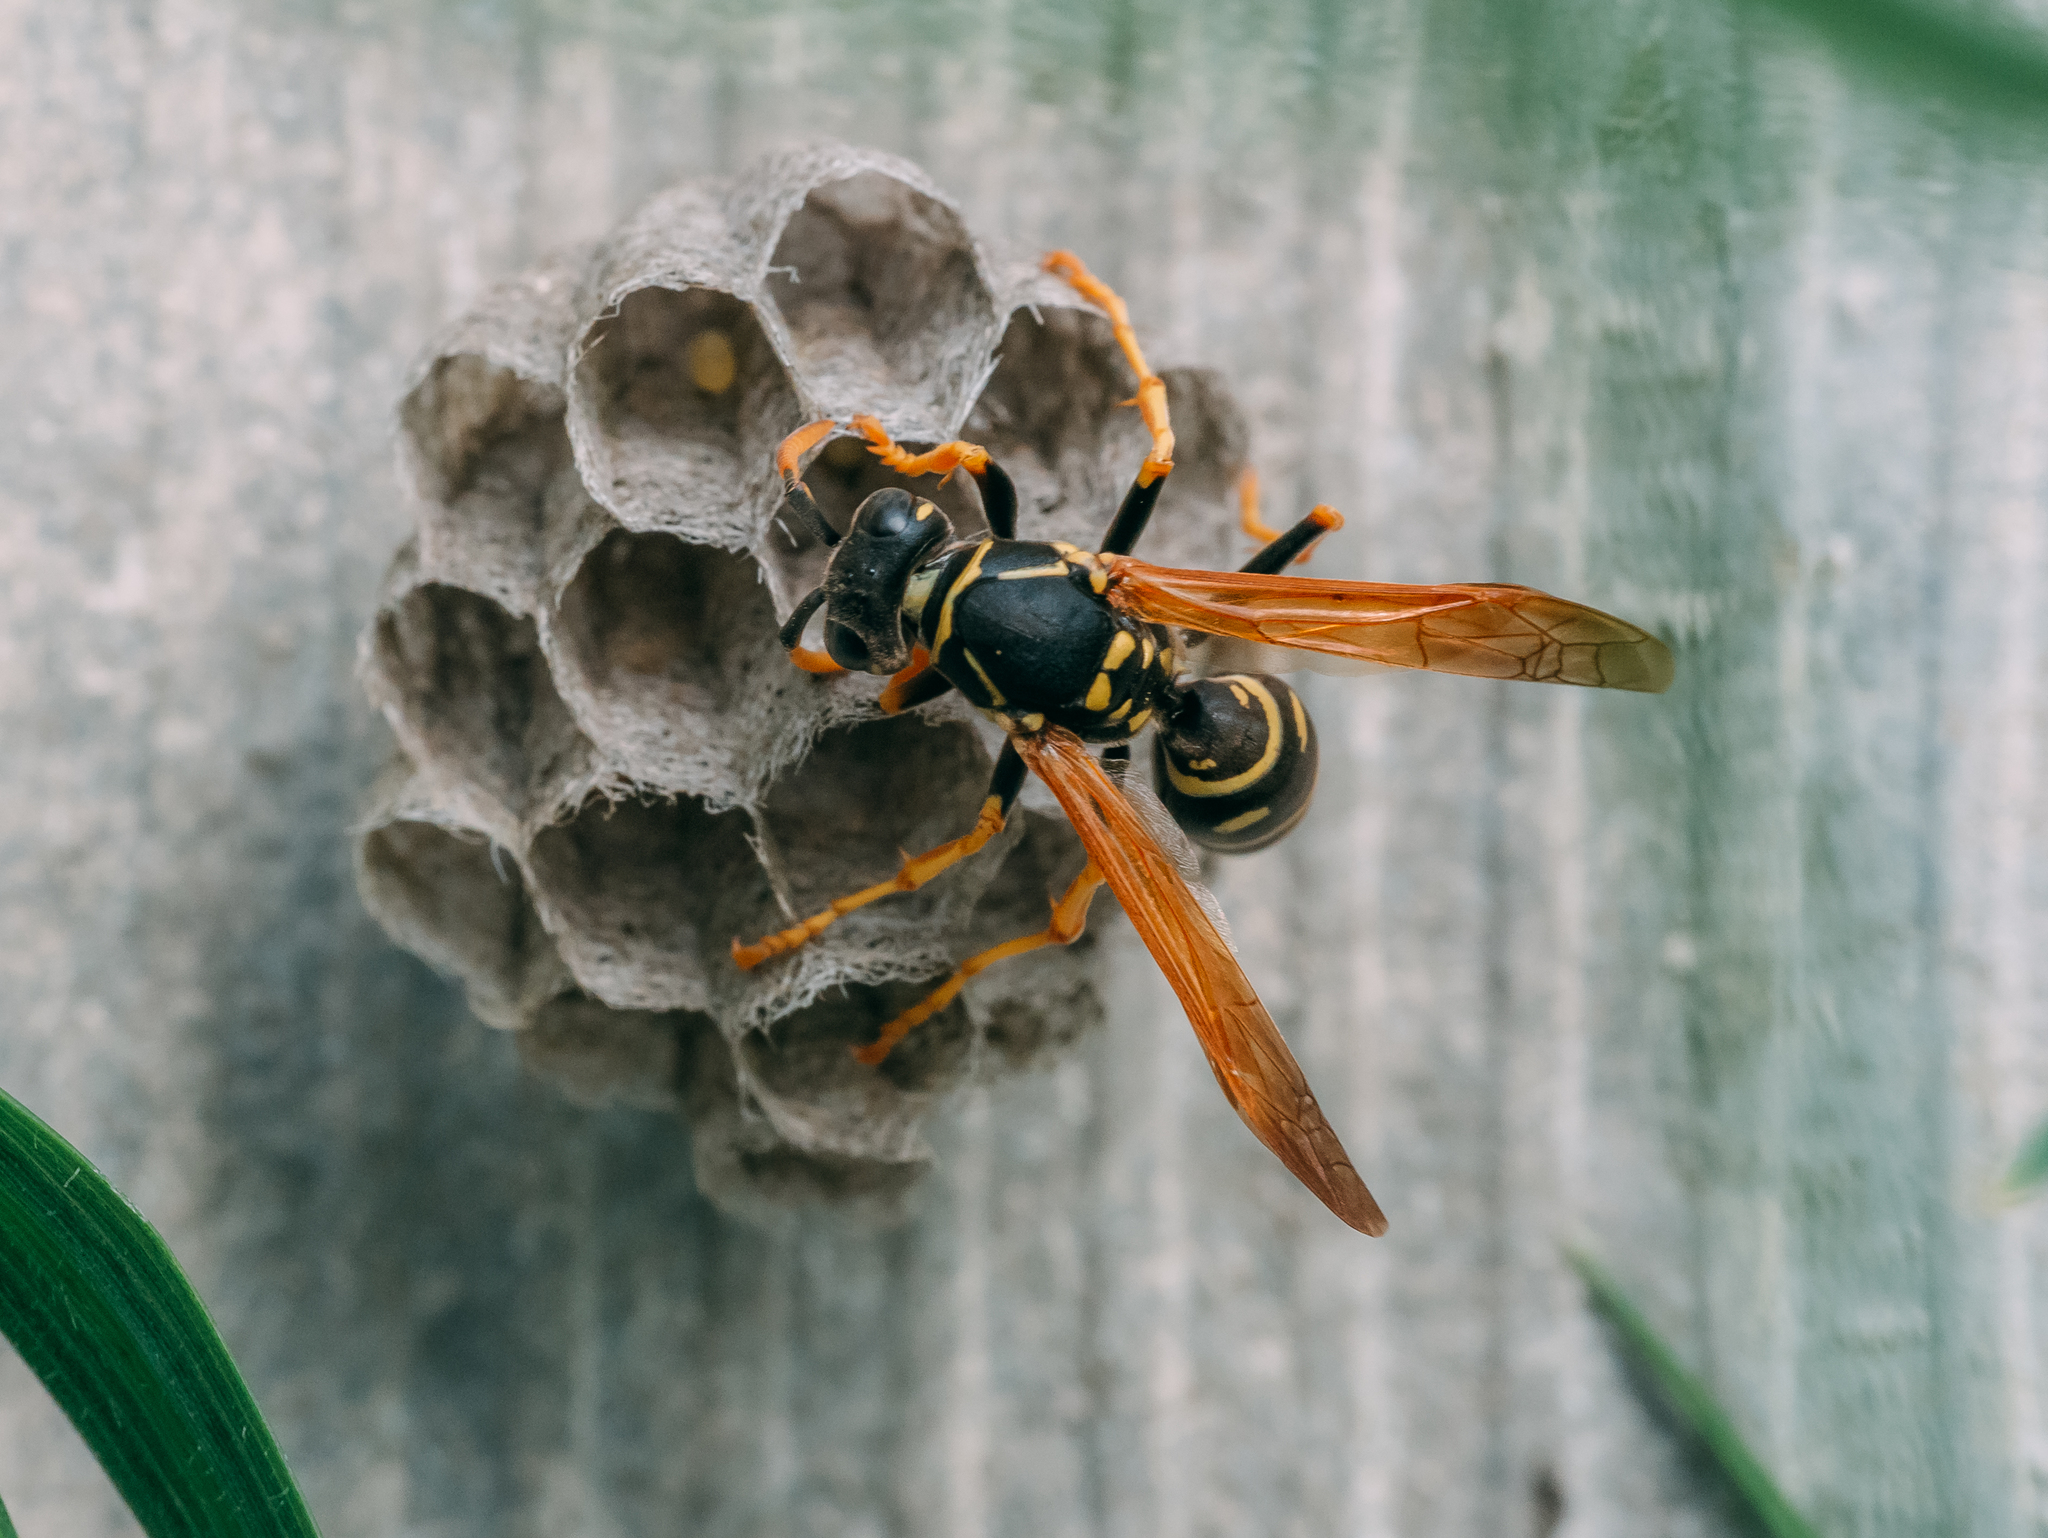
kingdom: Animalia
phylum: Arthropoda
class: Insecta
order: Hymenoptera
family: Eumenidae
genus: Polistes
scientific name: Polistes nimpha
